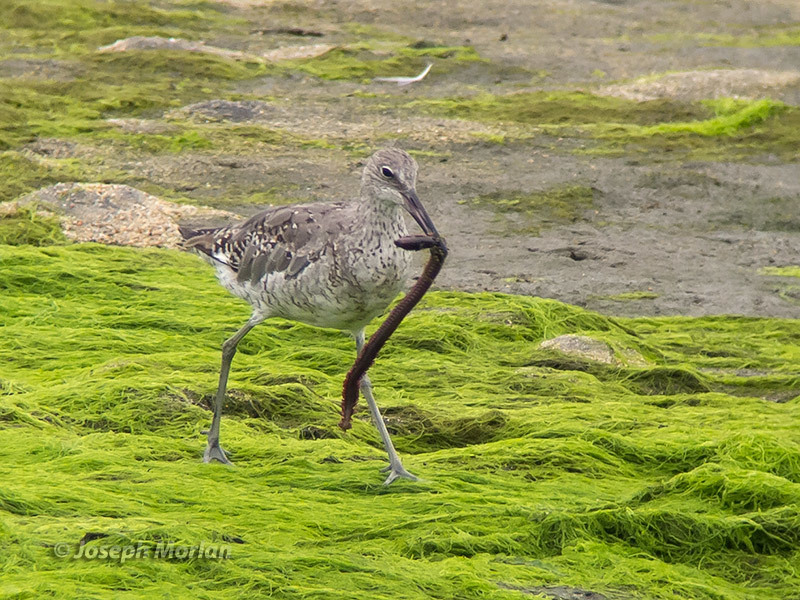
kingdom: Animalia
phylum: Chordata
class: Aves
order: Charadriiformes
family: Scolopacidae
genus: Tringa
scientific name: Tringa semipalmata
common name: Willet
